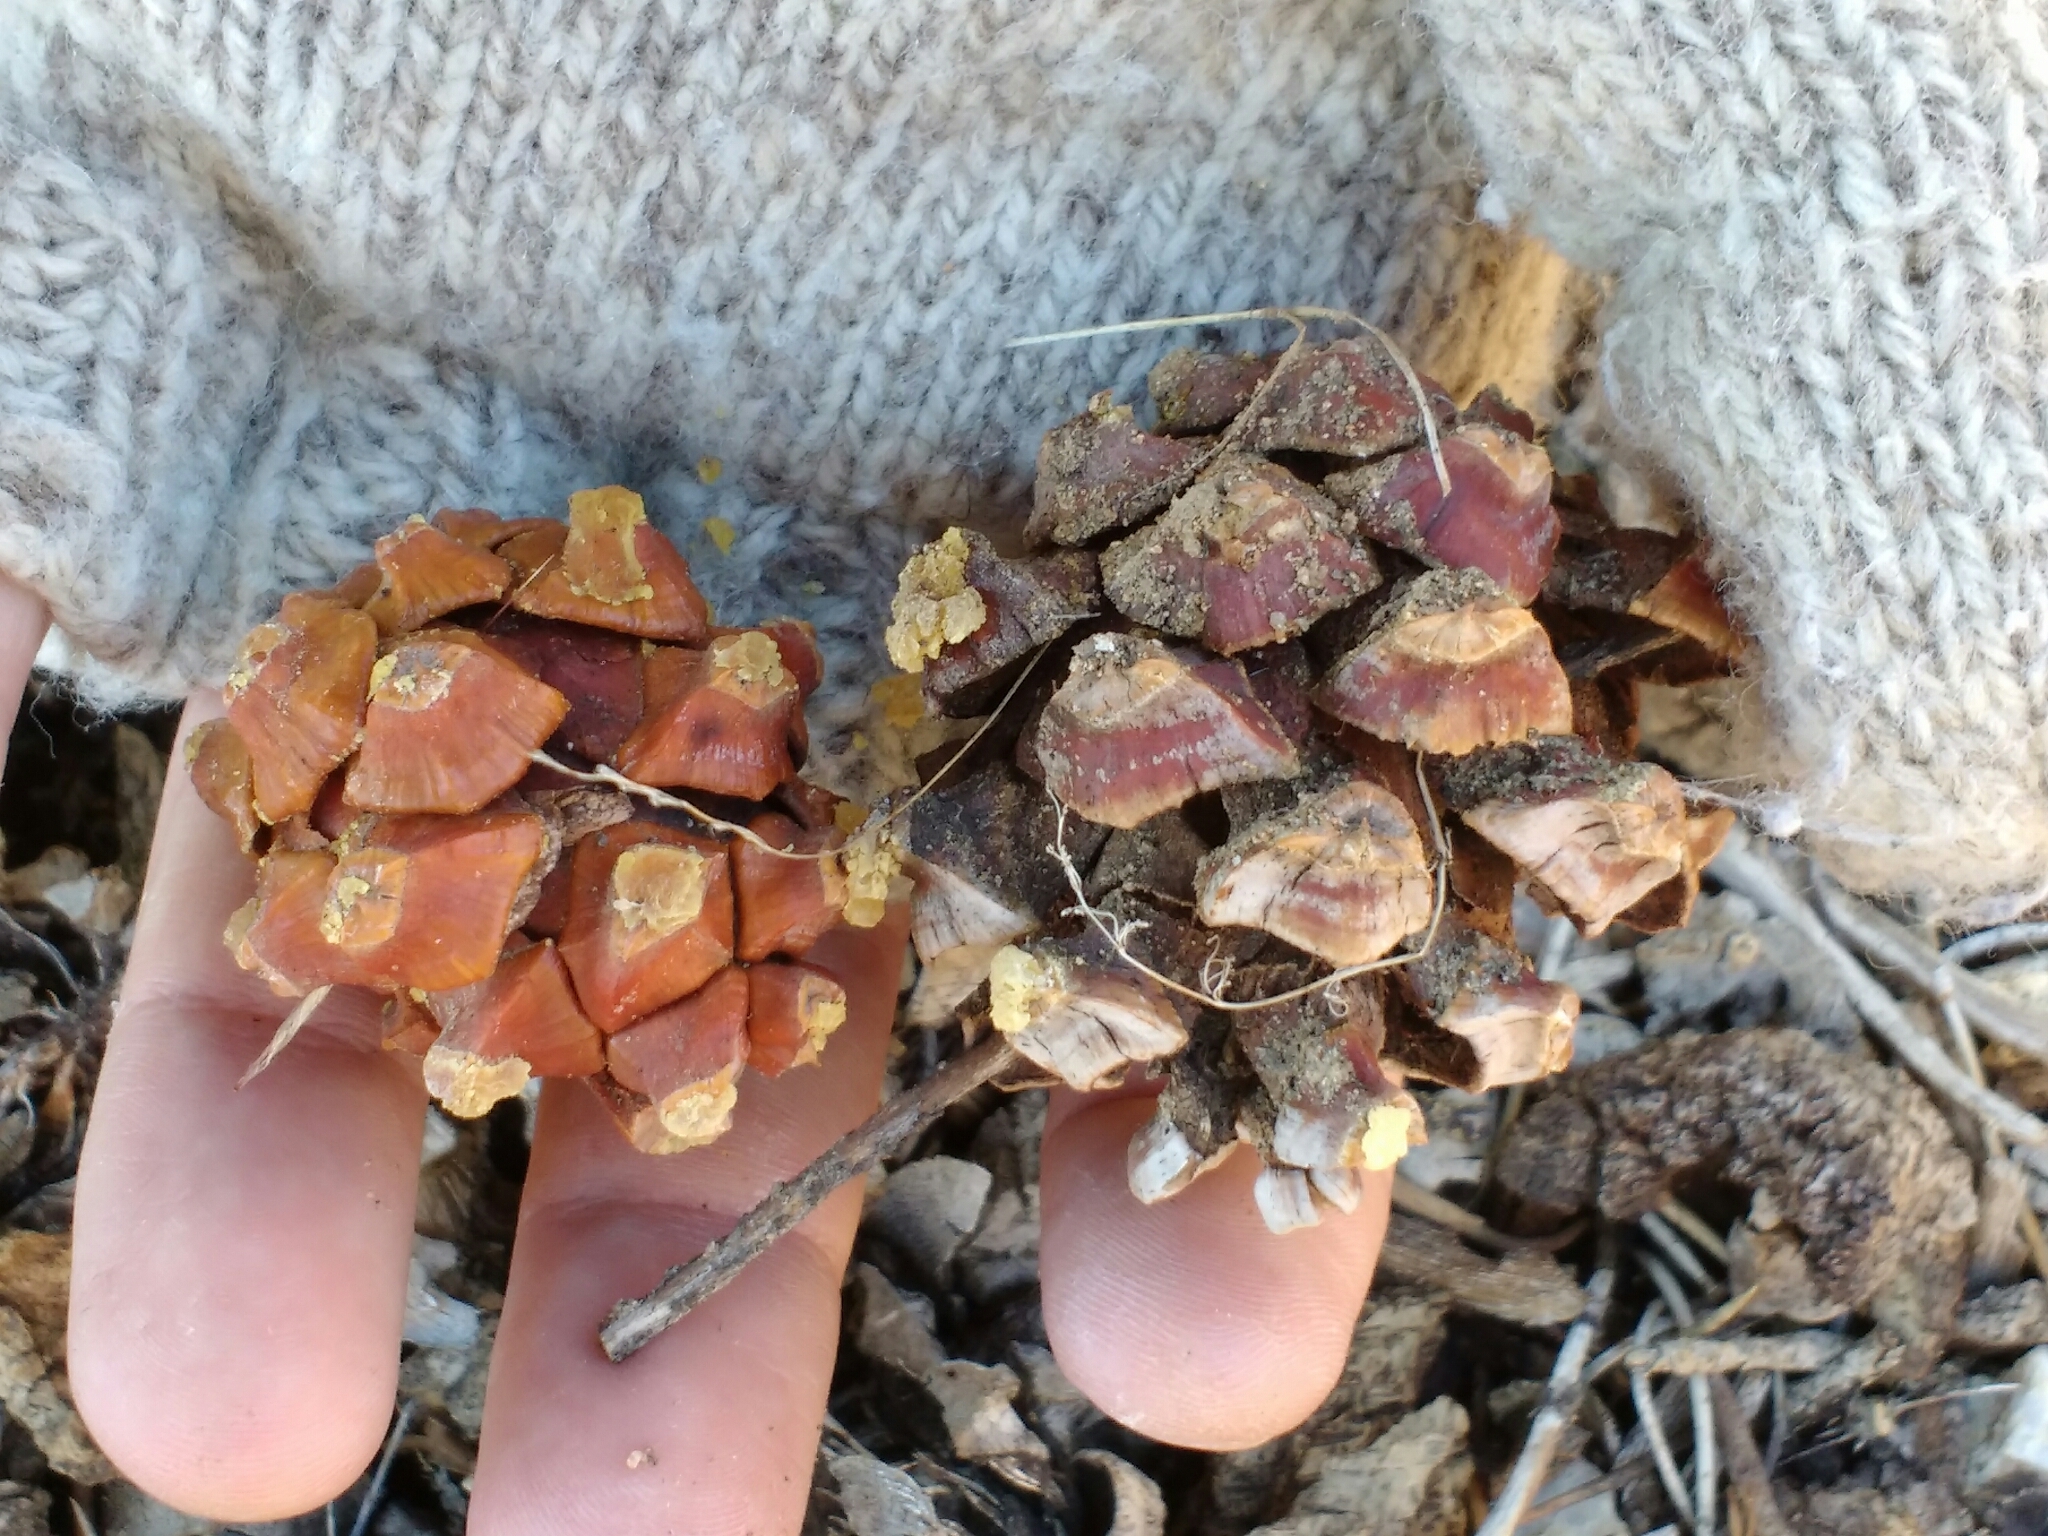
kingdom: Plantae
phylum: Tracheophyta
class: Pinopsida
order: Pinales
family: Pinaceae
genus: Pinus
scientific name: Pinus monophylla
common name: One-leaved nut pine
